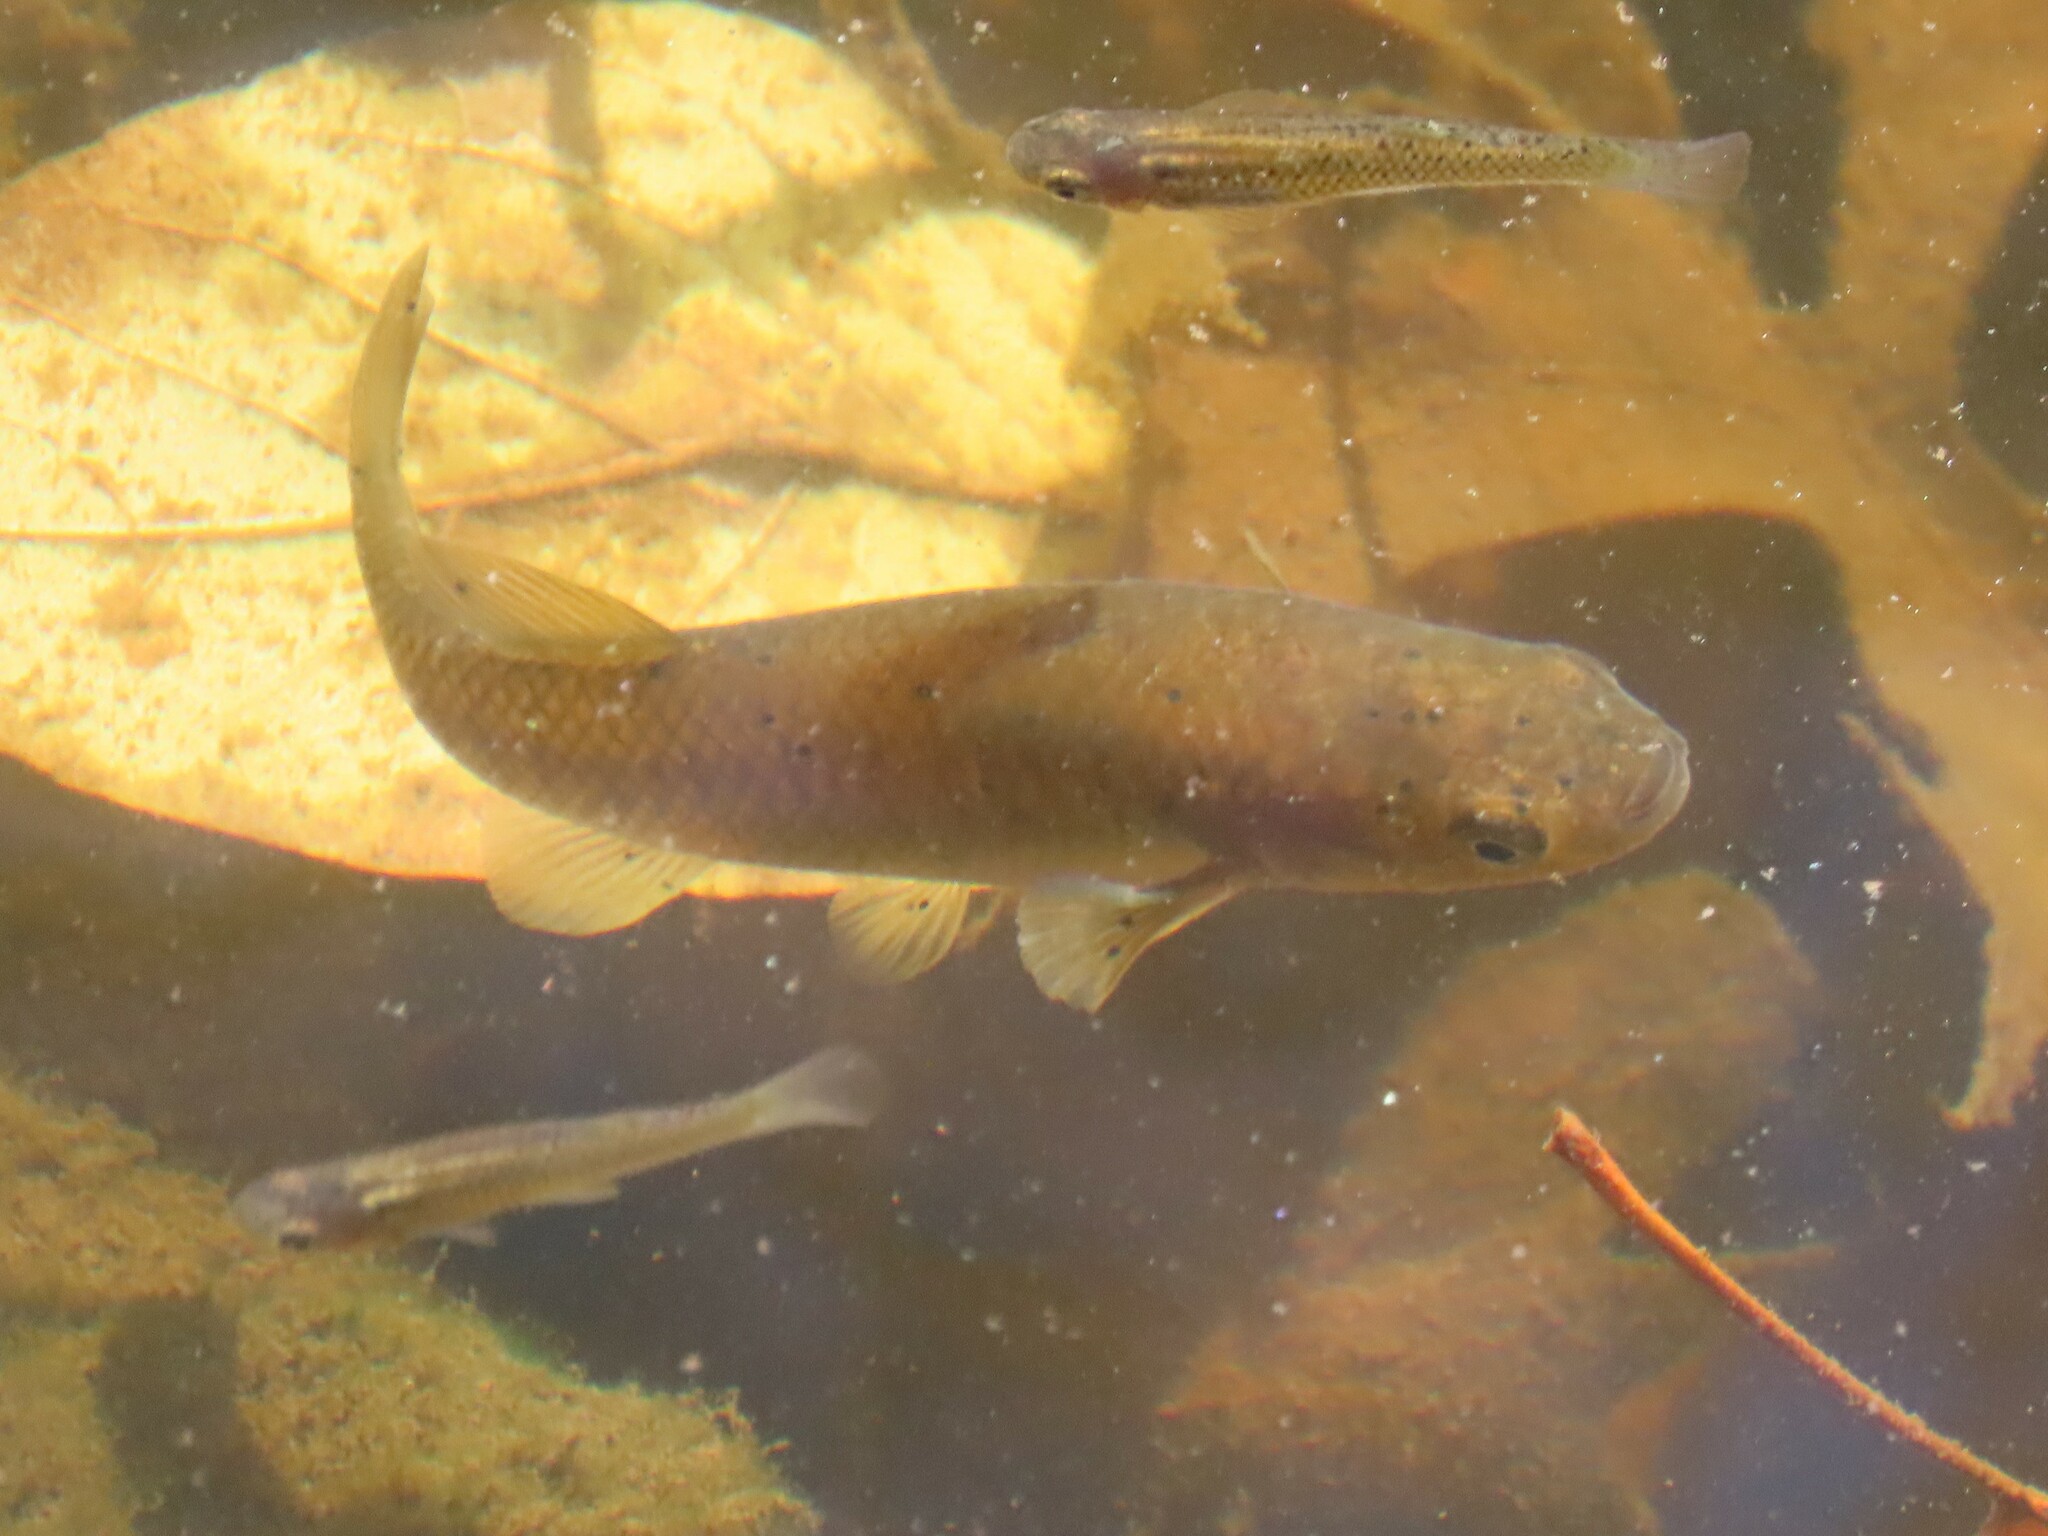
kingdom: Animalia
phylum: Chordata
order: Cyprinodontiformes
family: Fundulidae
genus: Fundulus
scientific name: Fundulus heteroclitus
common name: Mummichog
